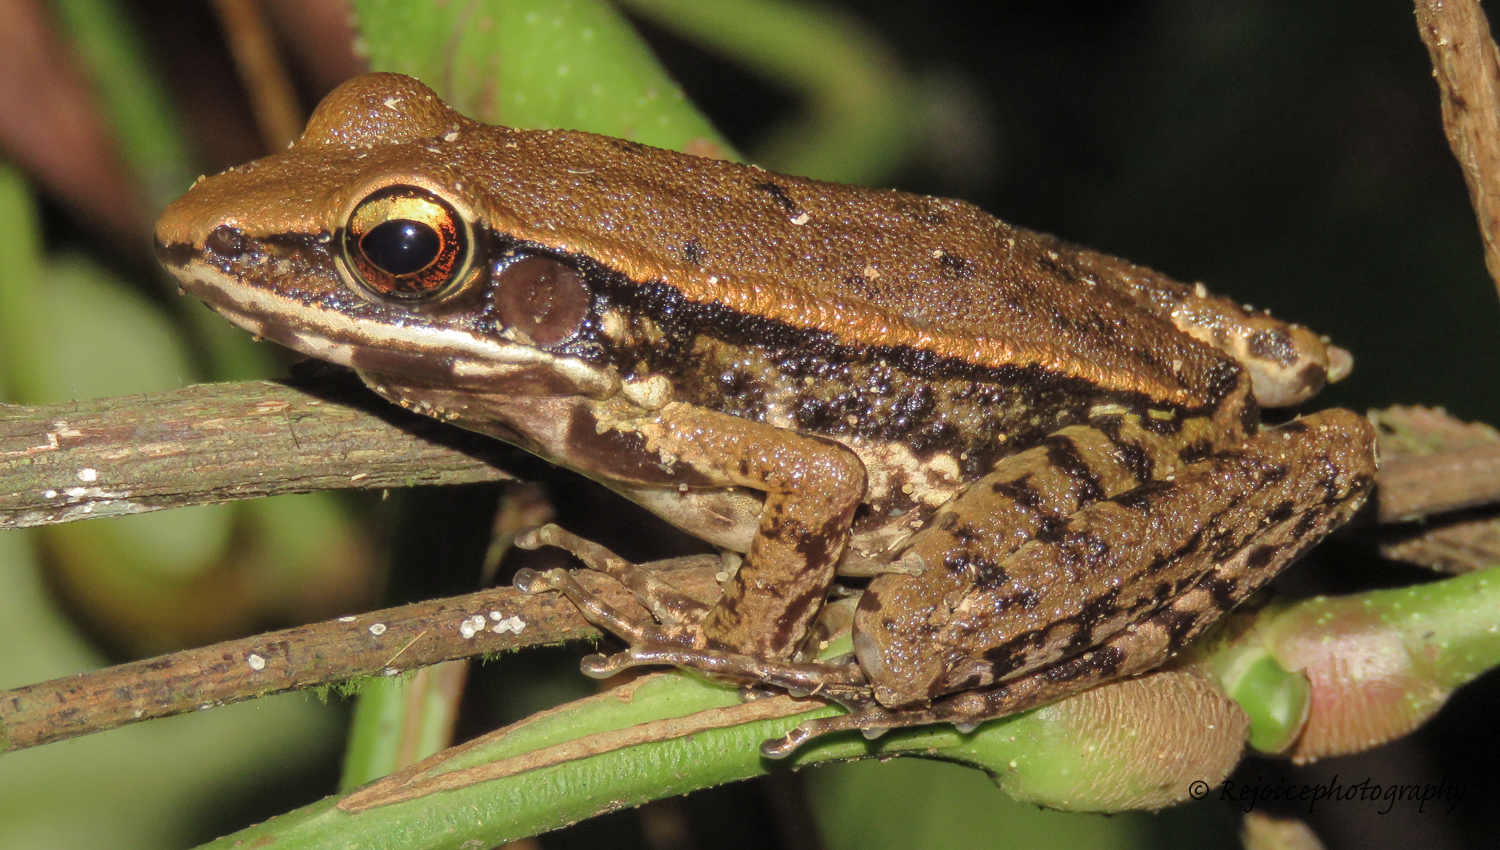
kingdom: Animalia
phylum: Chordata
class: Amphibia
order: Anura
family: Ranidae
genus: Hydrophylax
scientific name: Hydrophylax leptoglossa
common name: Cope's assam frog
